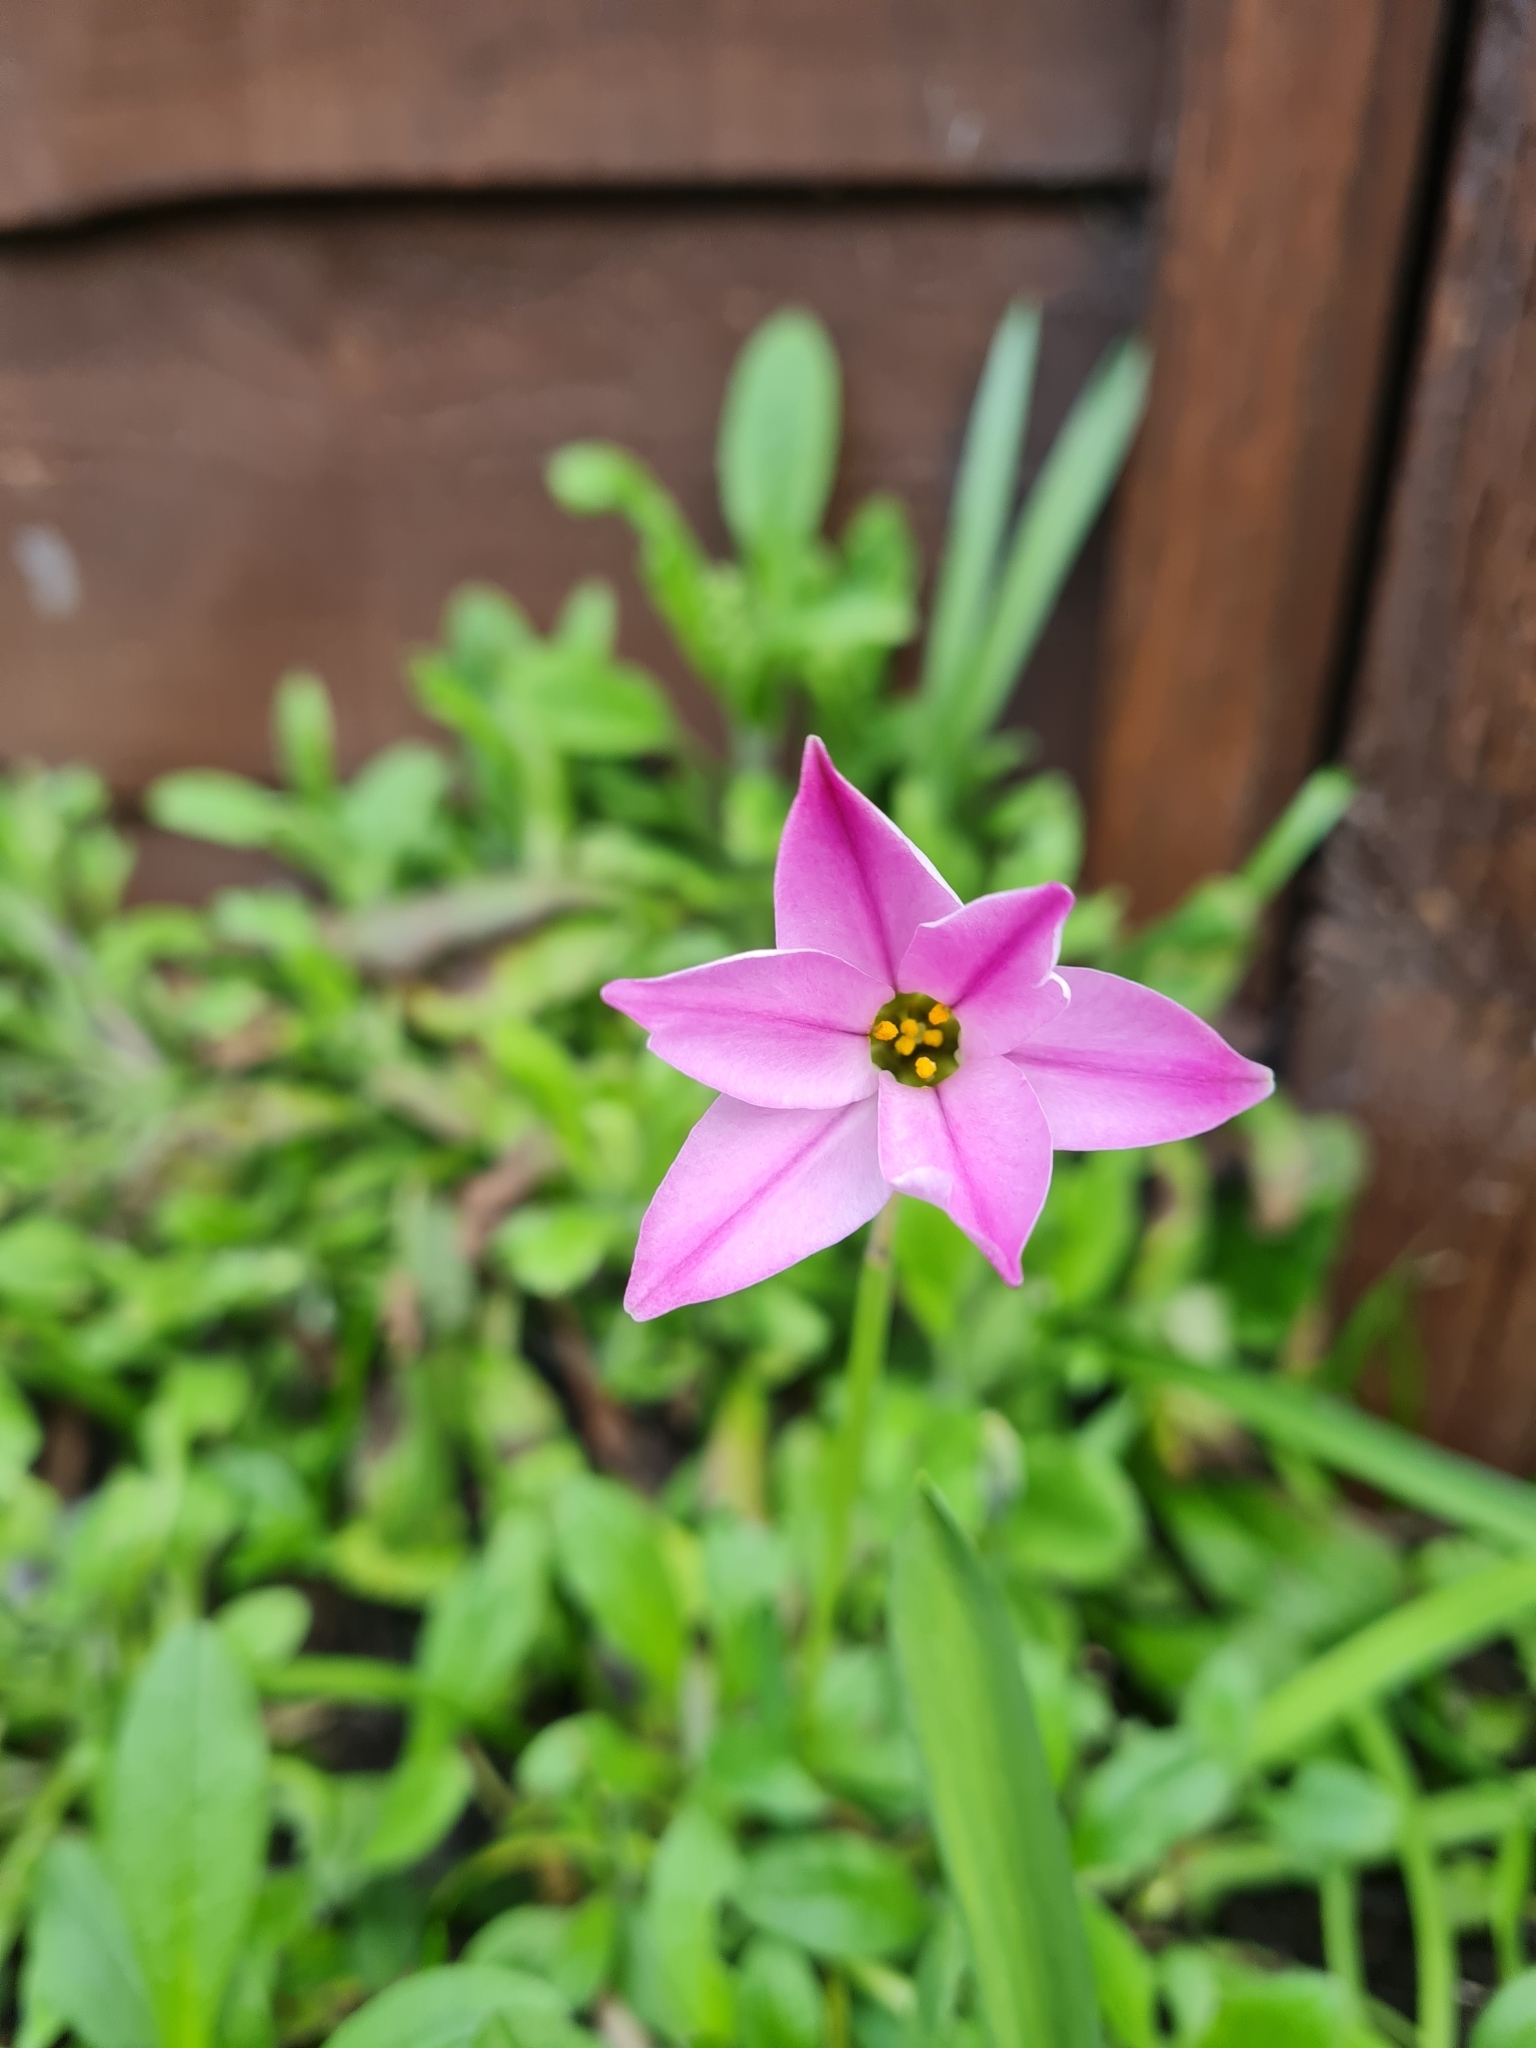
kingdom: Plantae
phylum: Tracheophyta
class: Liliopsida
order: Asparagales
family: Amaryllidaceae
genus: Ipheion
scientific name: Ipheion uniflorum
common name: Spring starflower
